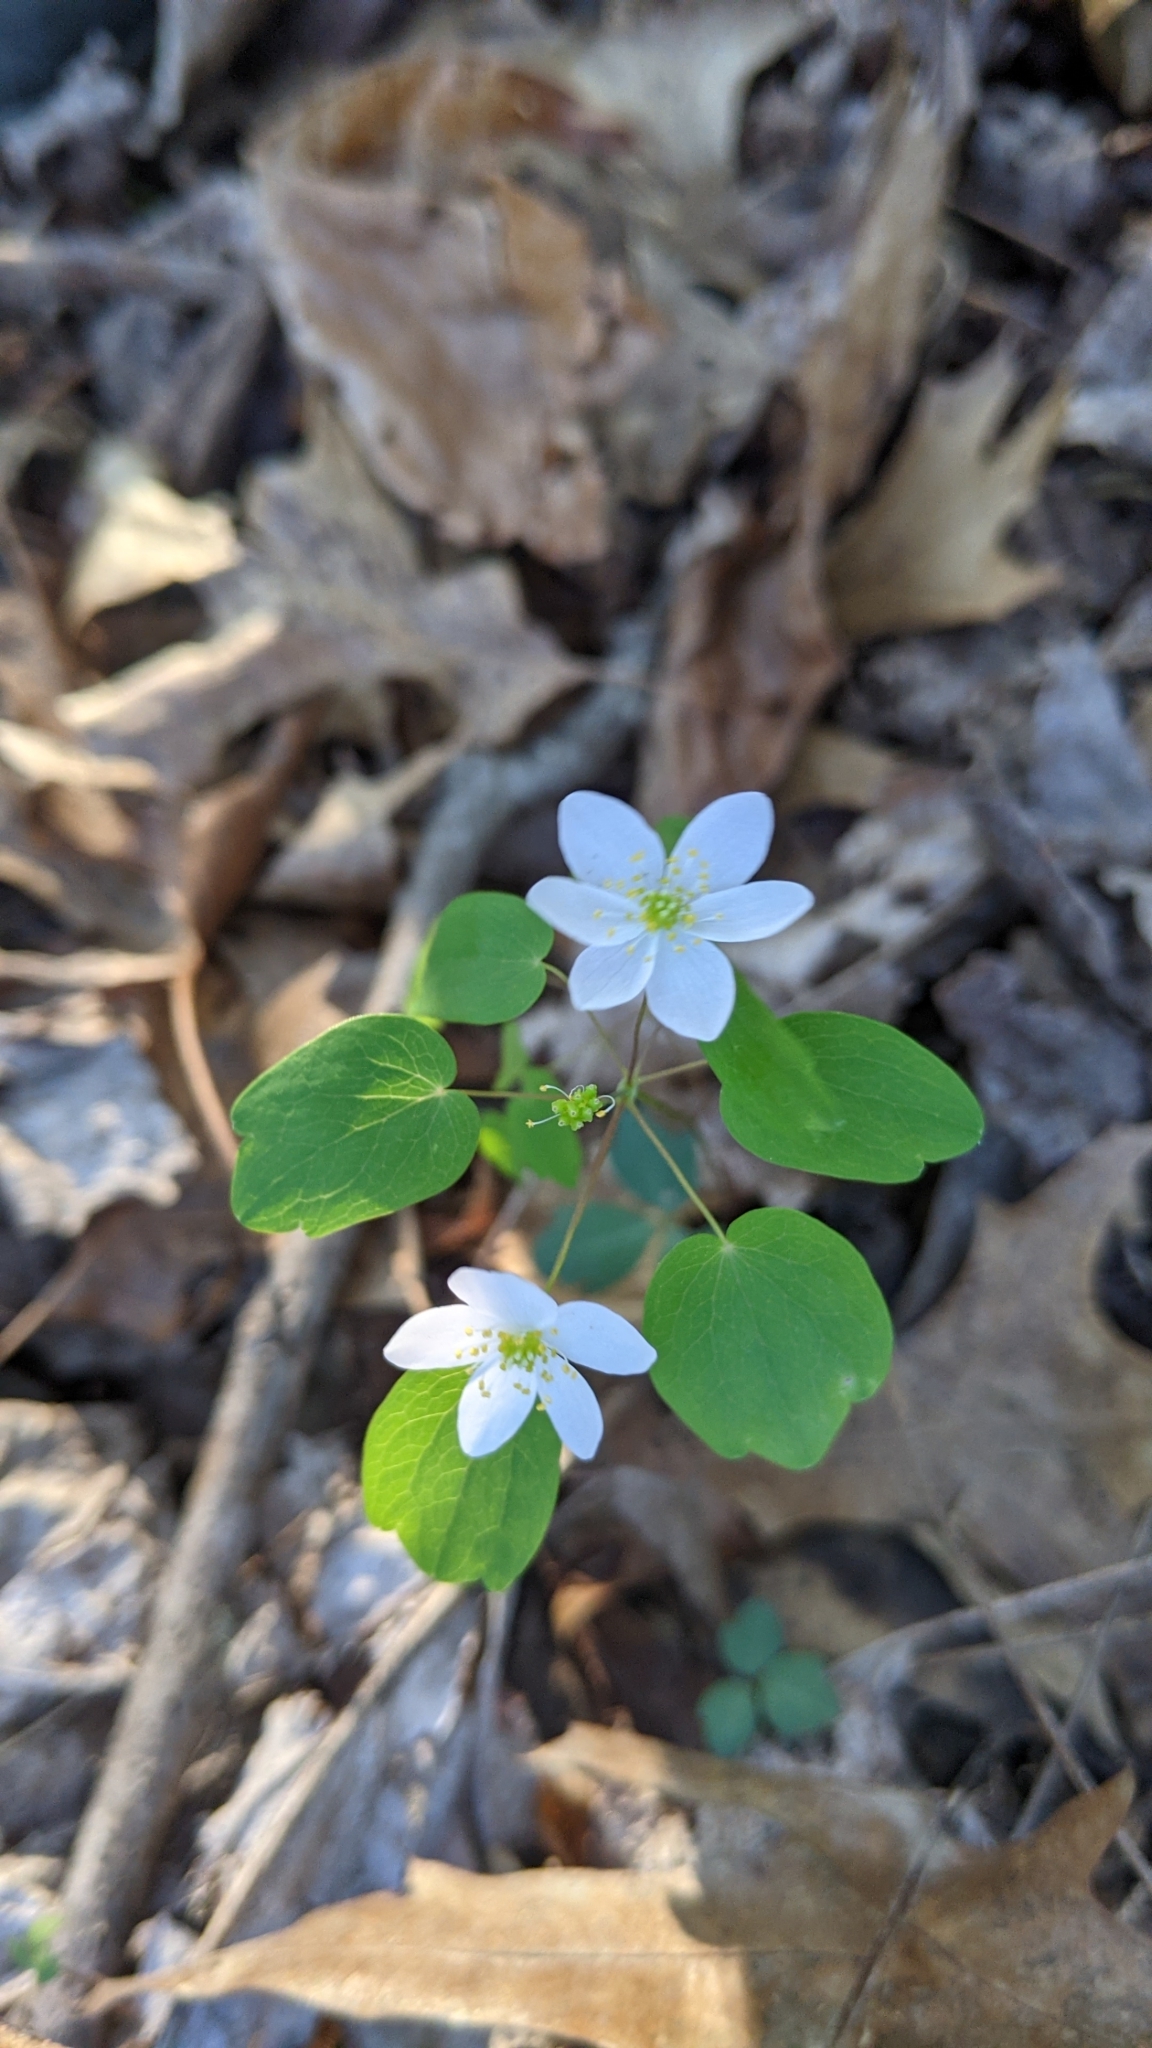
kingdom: Plantae
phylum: Tracheophyta
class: Magnoliopsida
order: Ranunculales
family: Ranunculaceae
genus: Thalictrum
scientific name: Thalictrum thalictroides
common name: Rue-anemone
